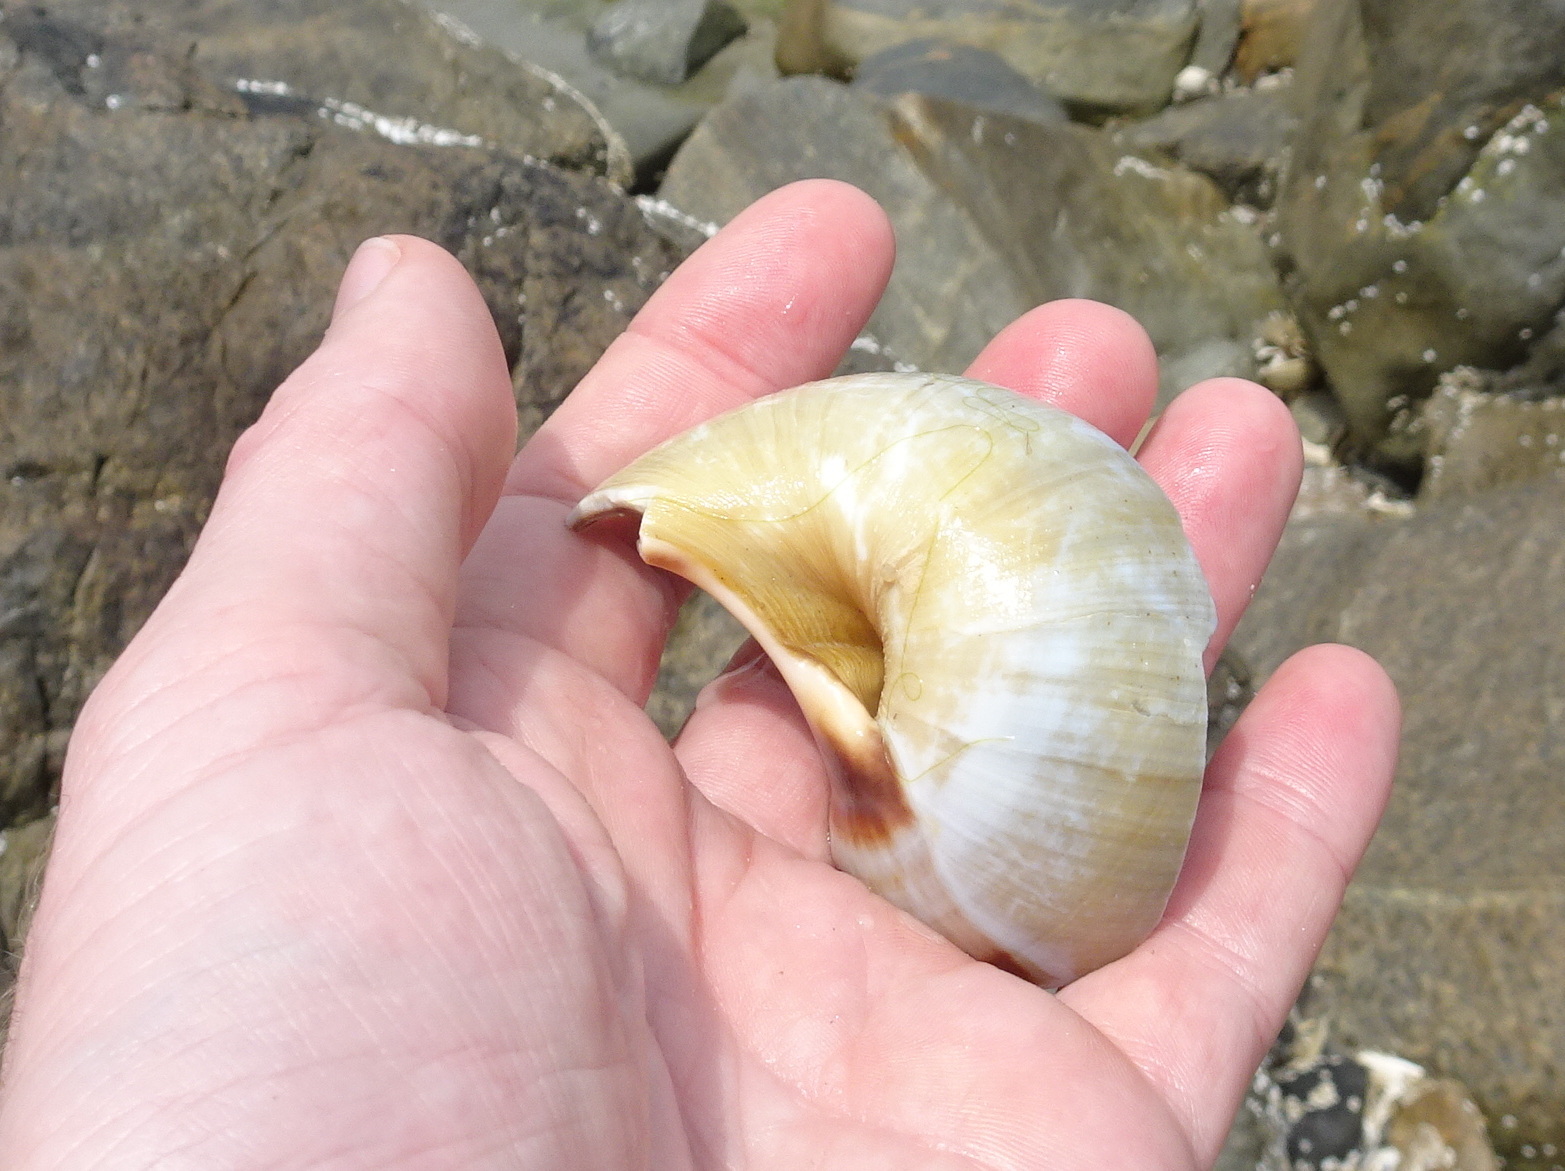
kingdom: Animalia
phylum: Mollusca
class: Gastropoda
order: Littorinimorpha
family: Naticidae
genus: Euspira
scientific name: Euspira heros
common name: Common northern moonsnail
